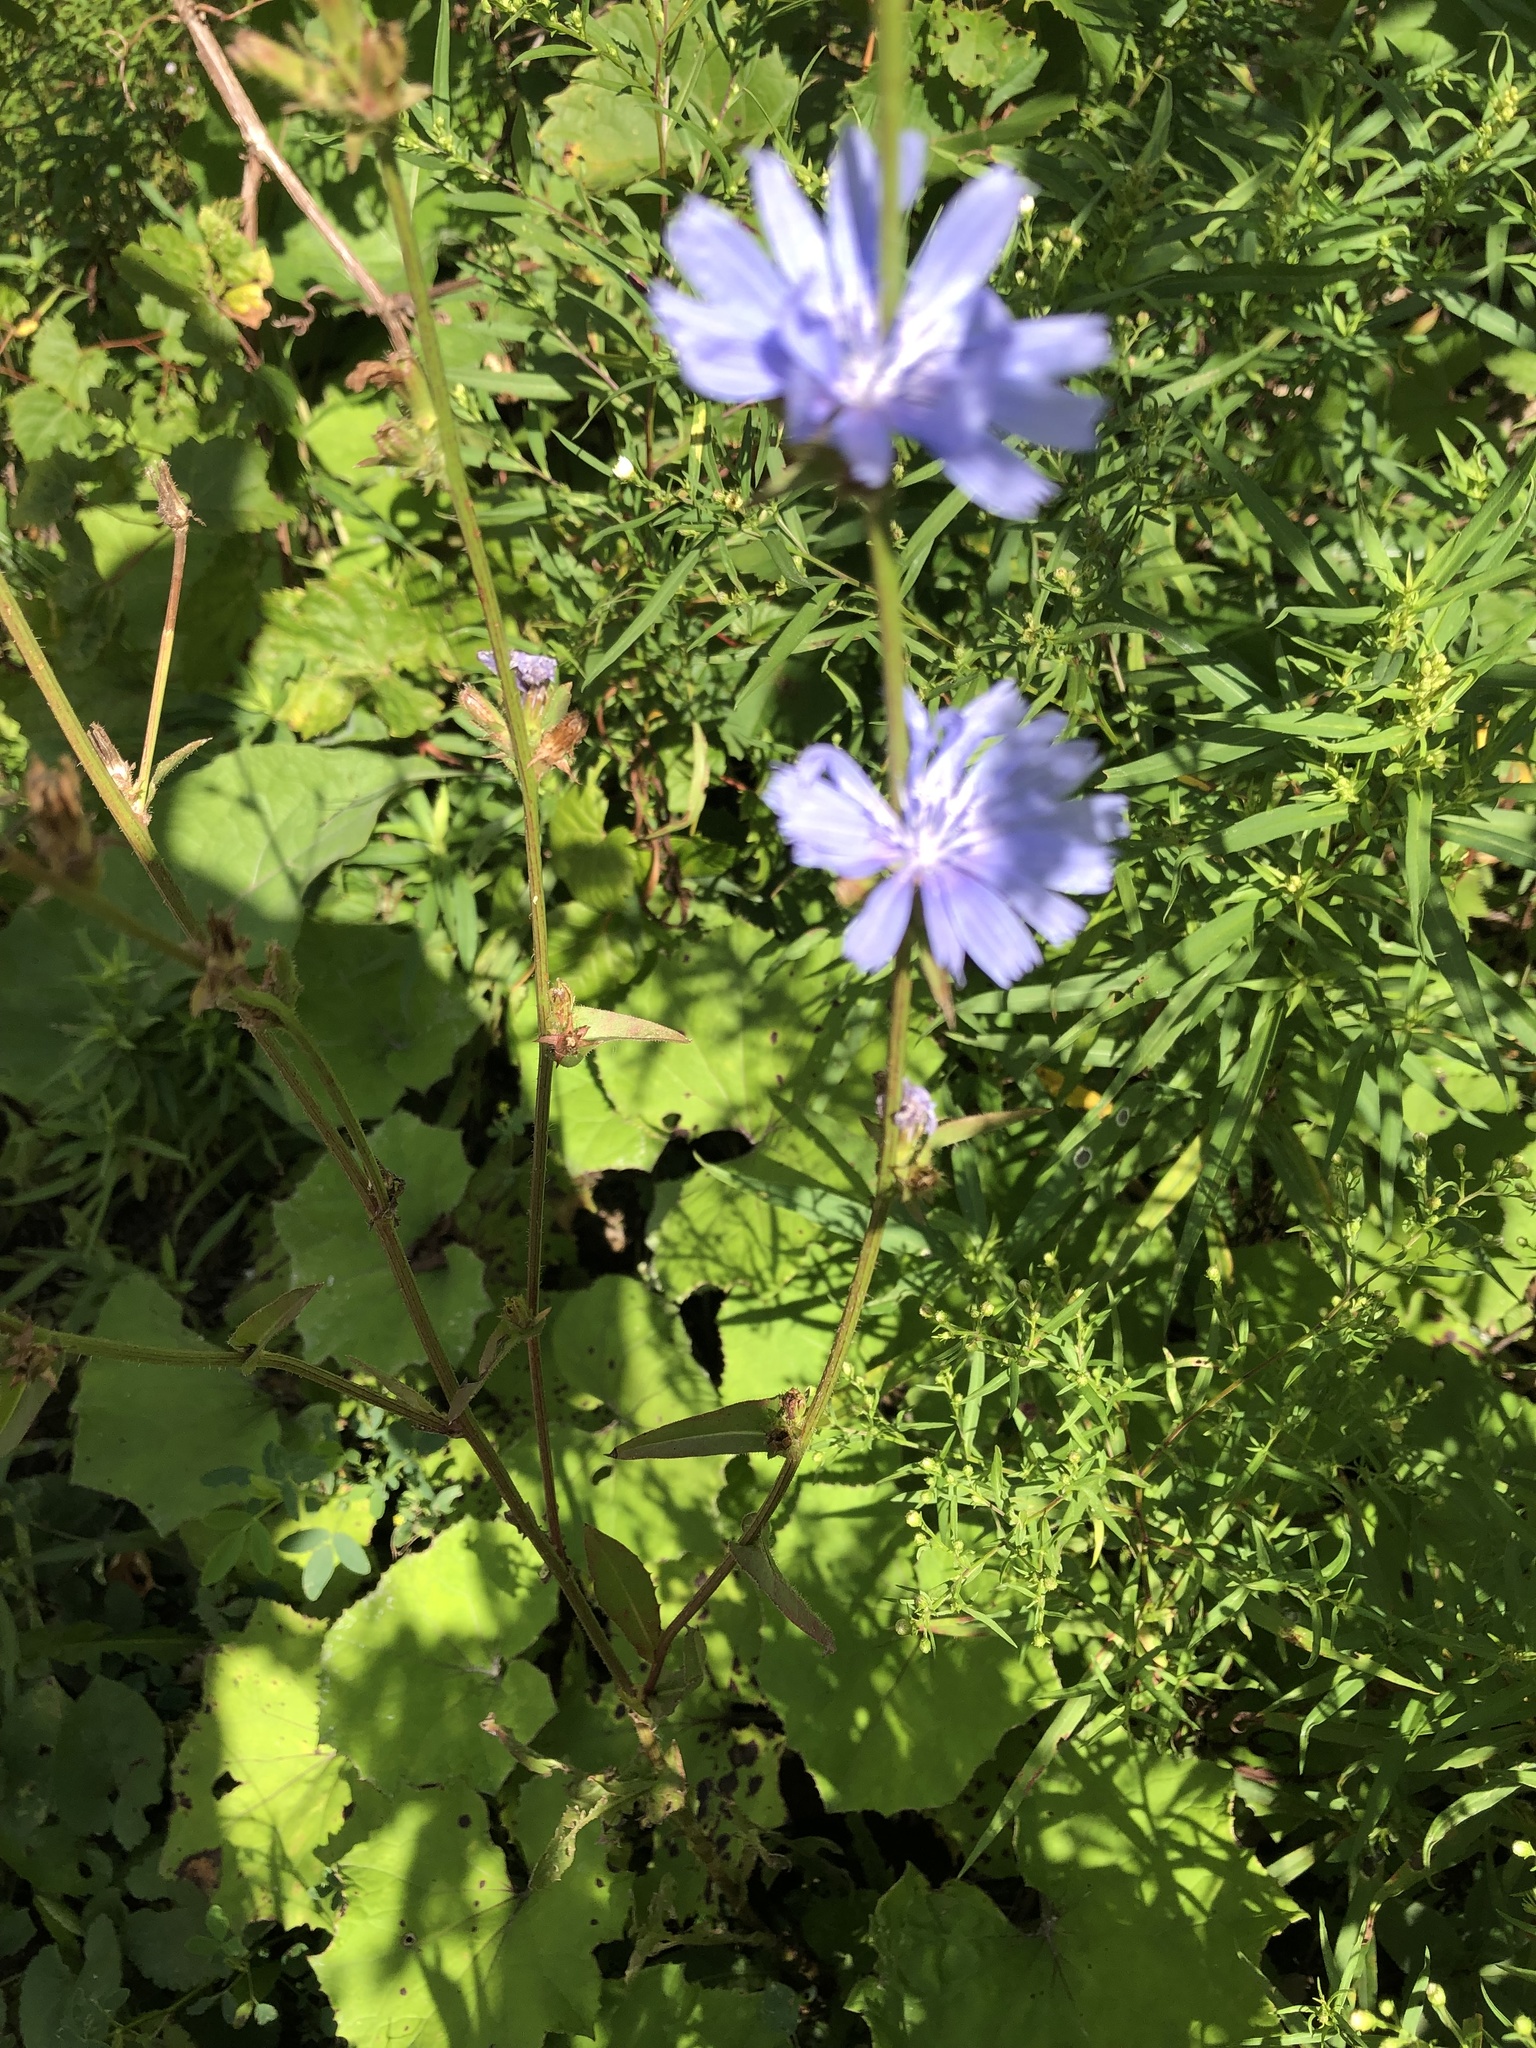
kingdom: Plantae
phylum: Tracheophyta
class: Magnoliopsida
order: Asterales
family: Asteraceae
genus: Cichorium
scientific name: Cichorium intybus
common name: Chicory
